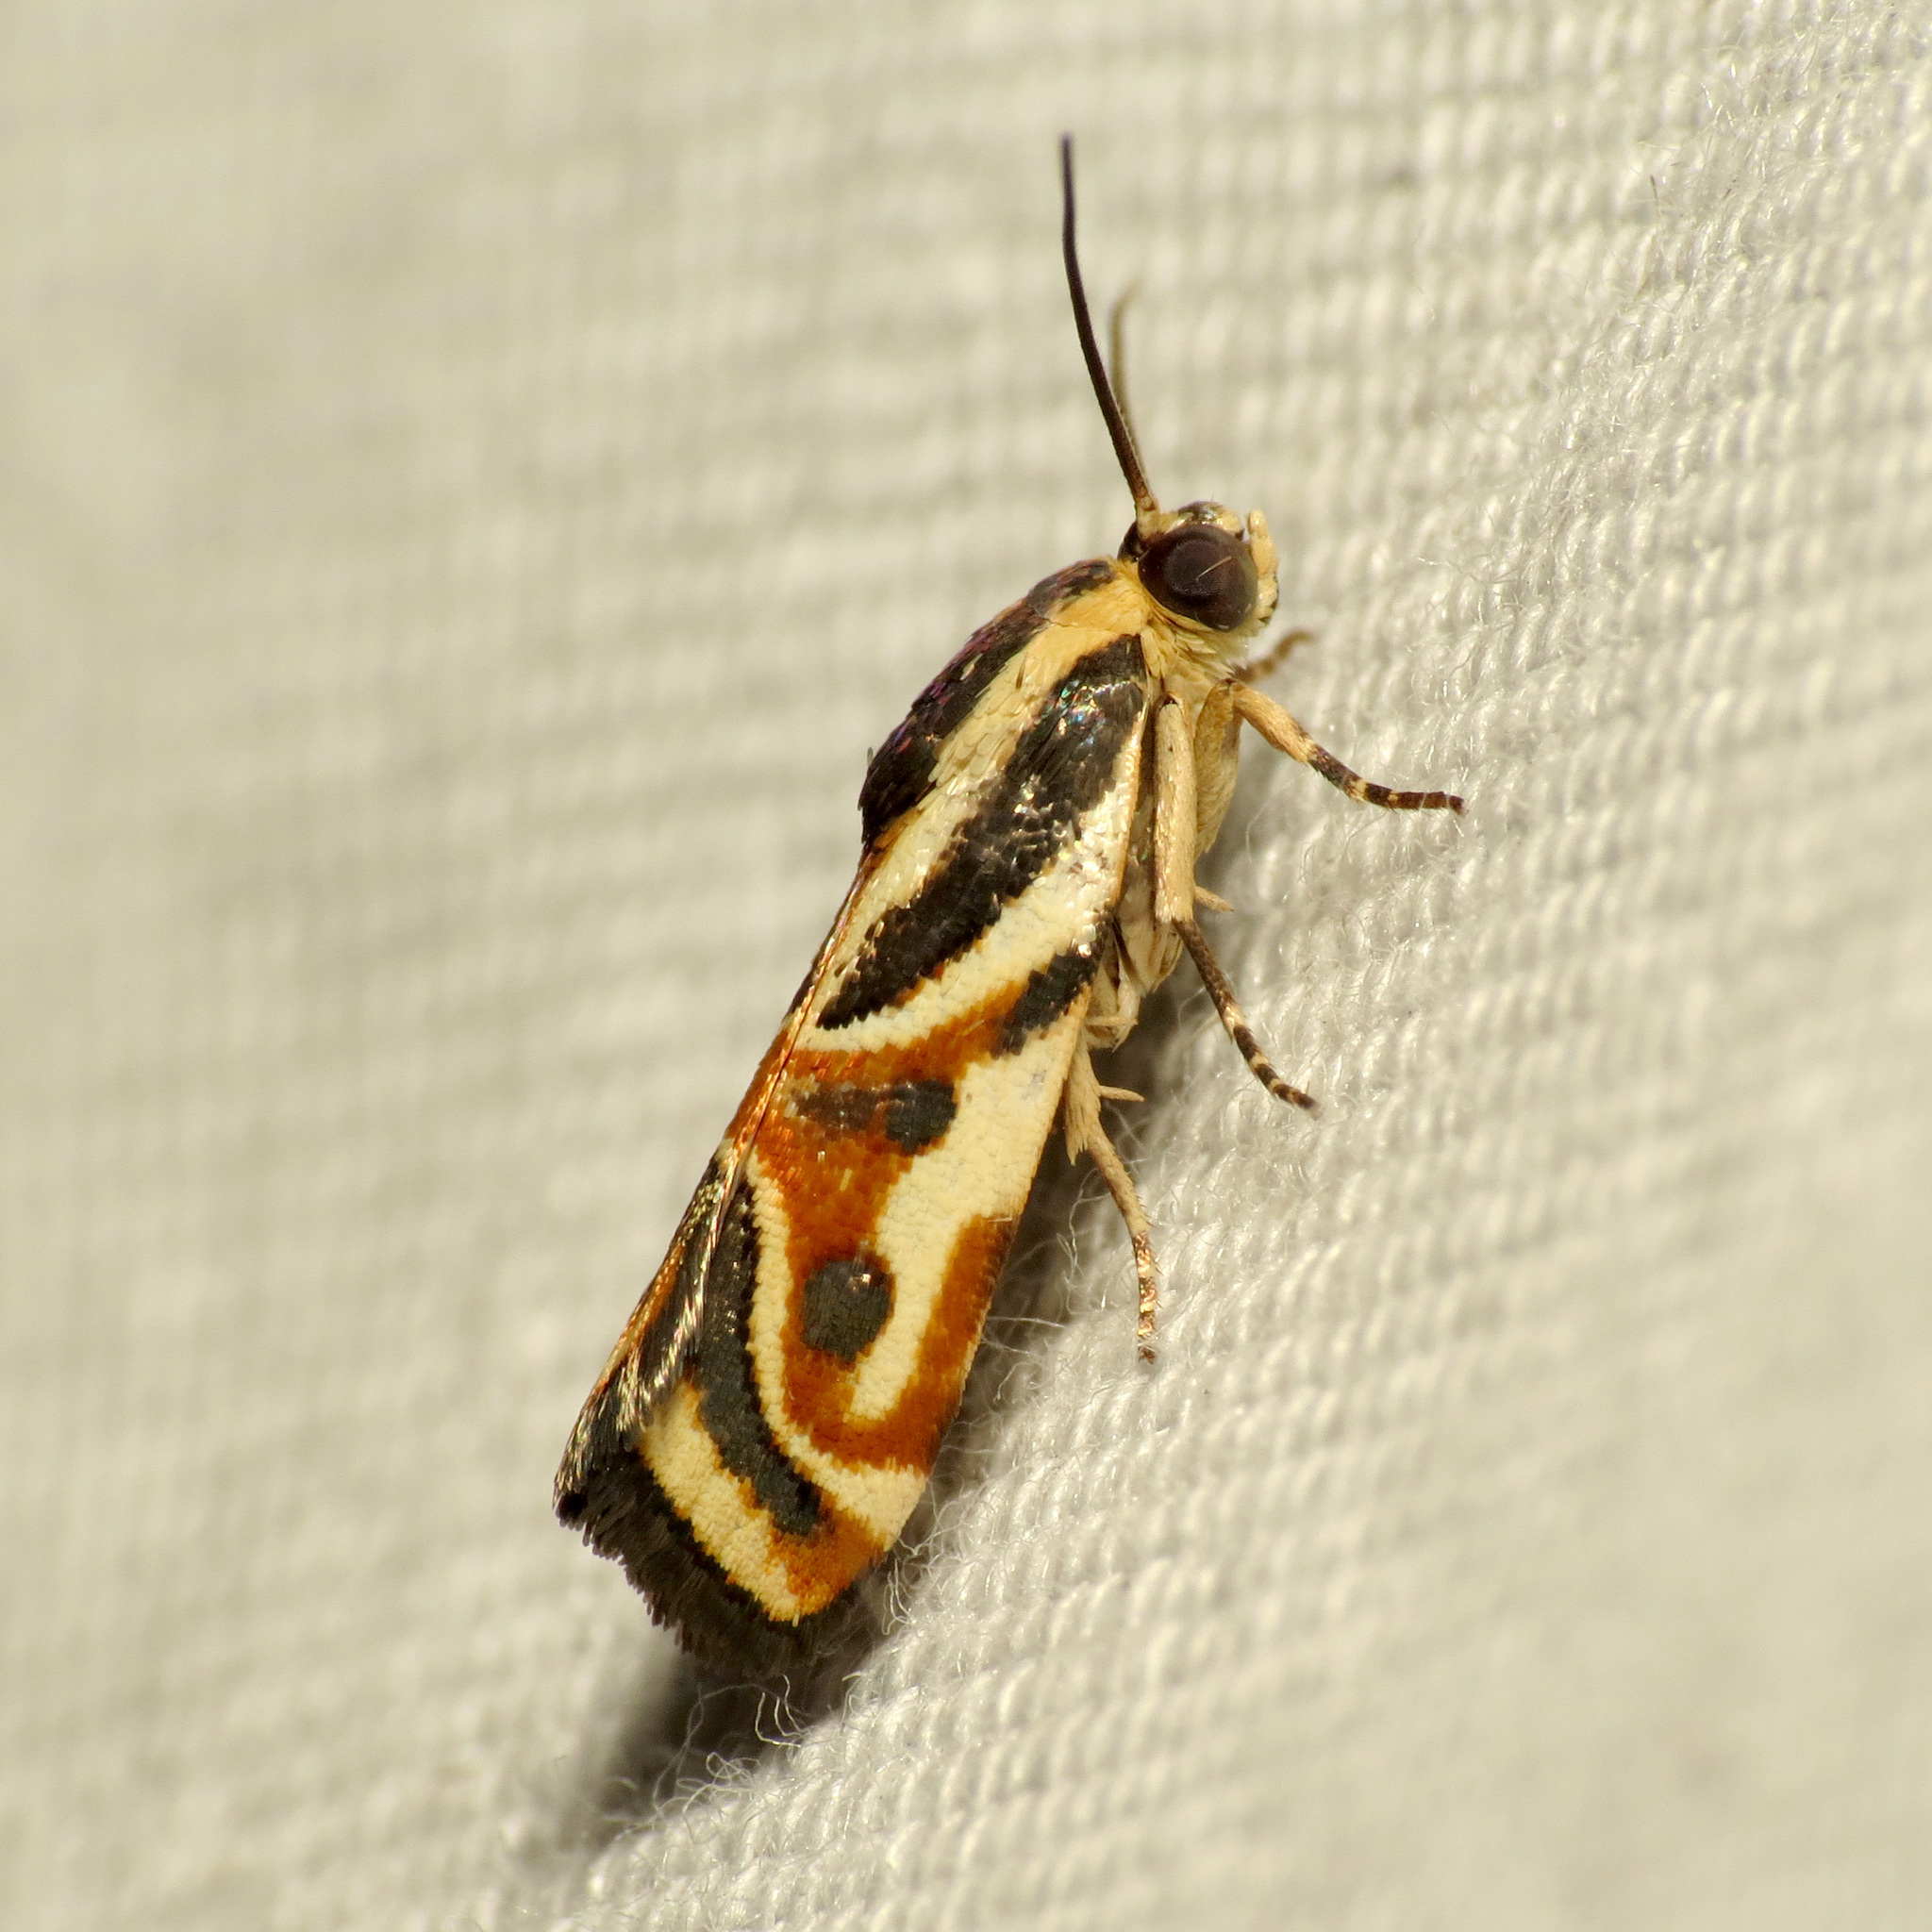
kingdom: Animalia
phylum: Arthropoda
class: Insecta
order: Lepidoptera
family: Noctuidae
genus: Spragueia
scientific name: Spragueia magnifica
